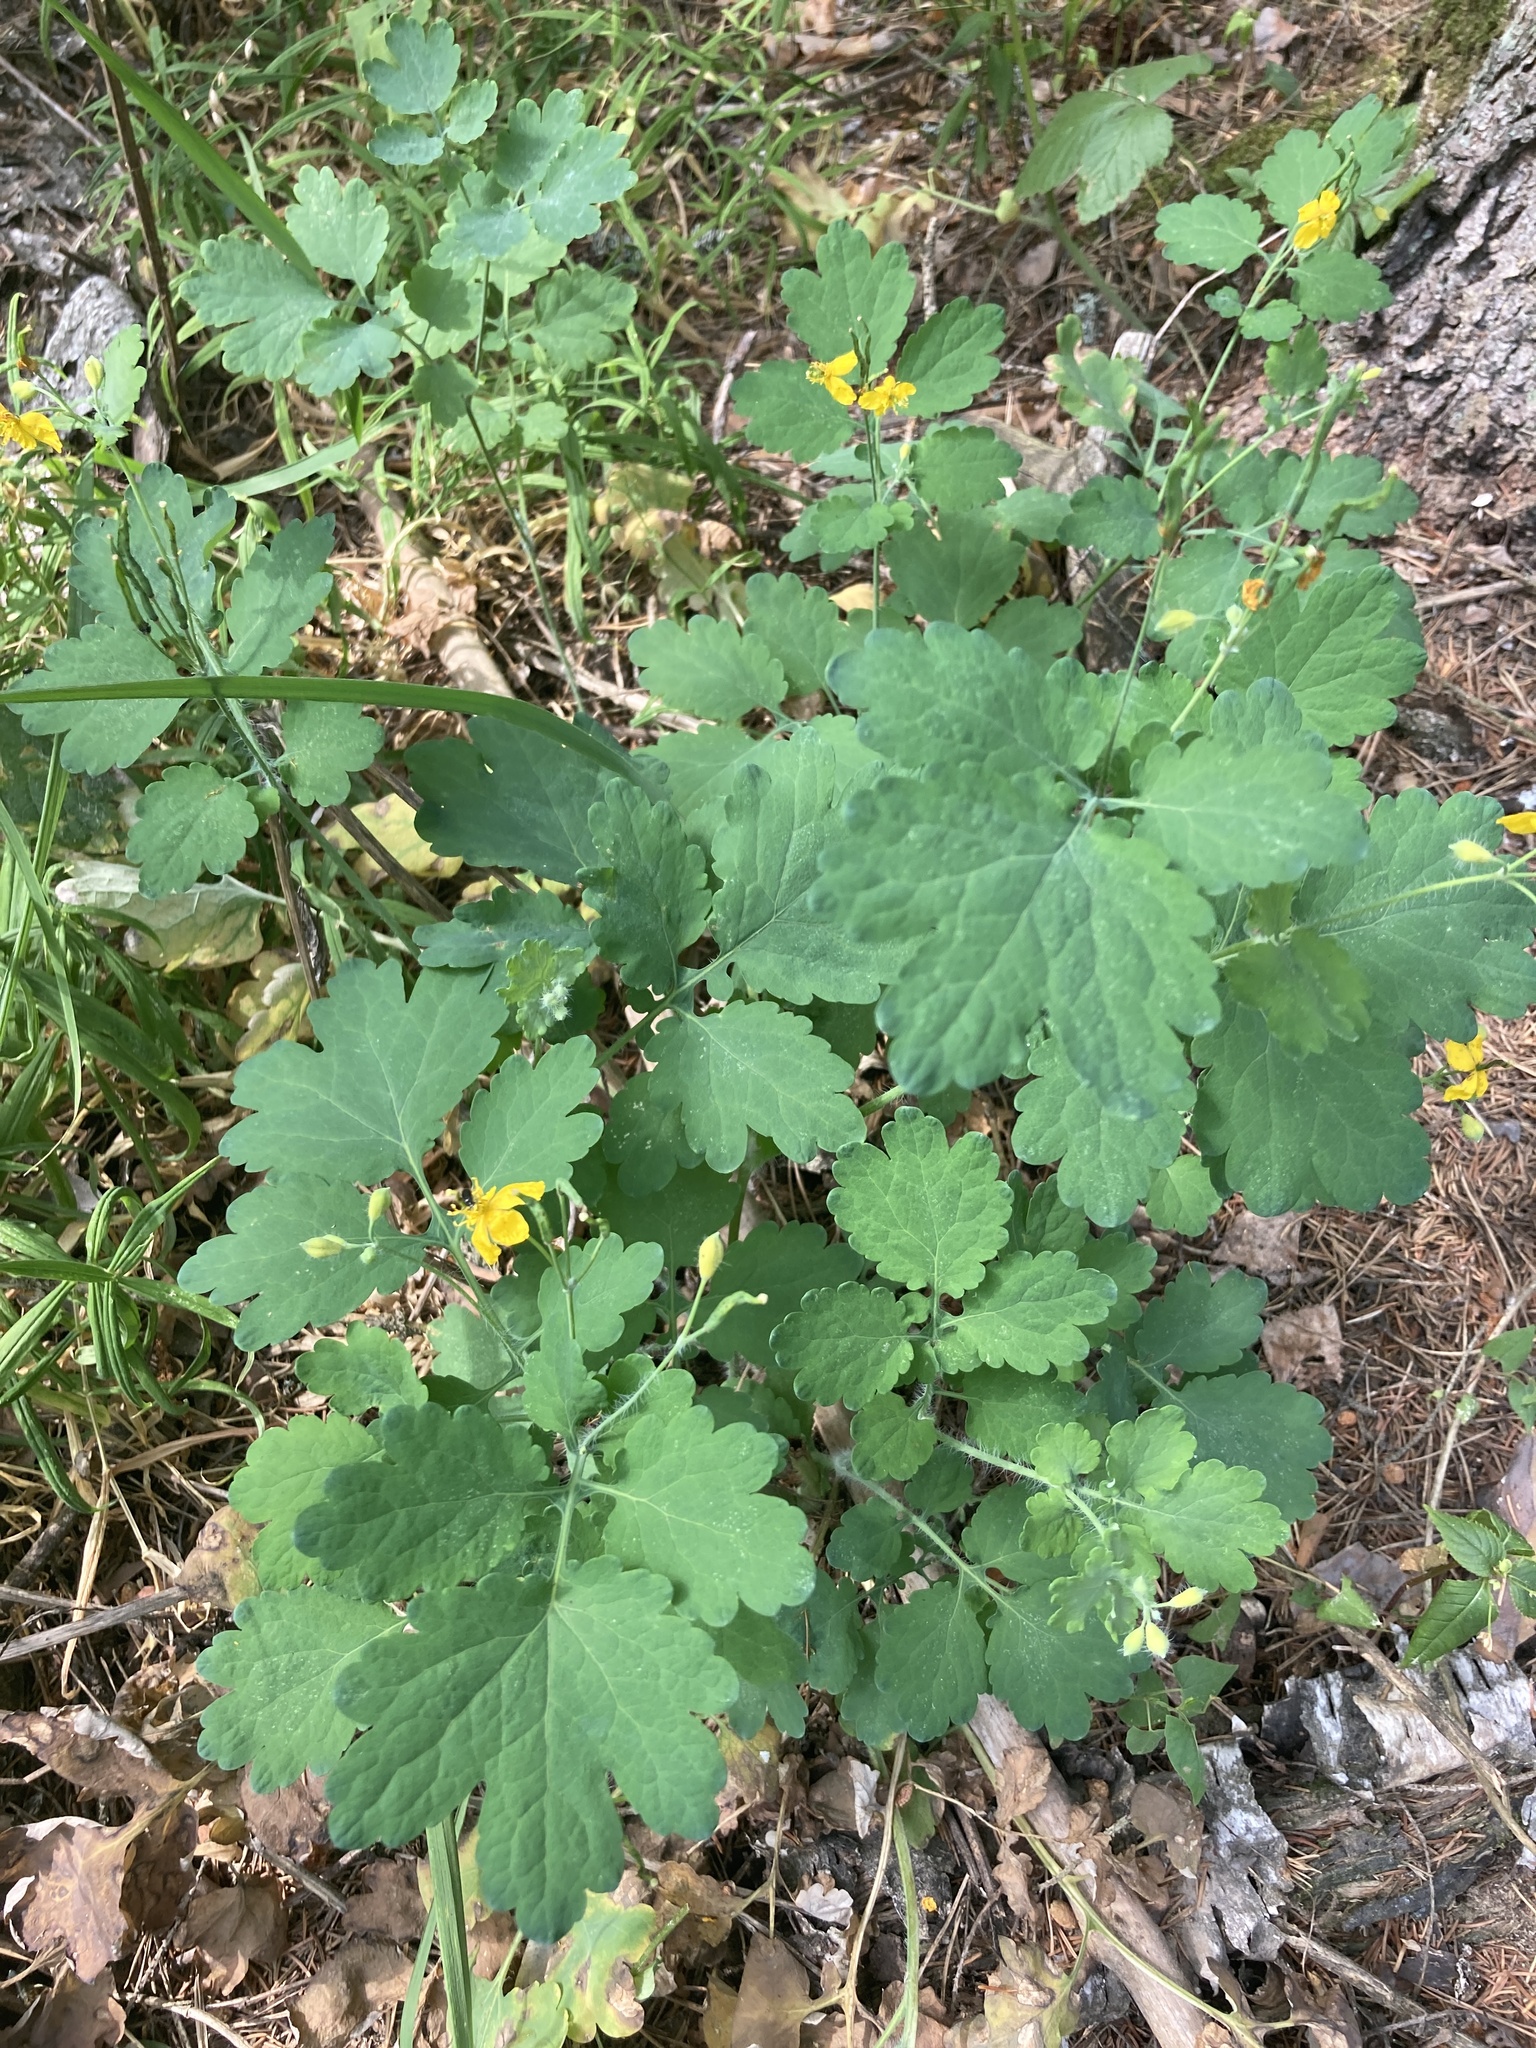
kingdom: Plantae
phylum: Tracheophyta
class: Magnoliopsida
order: Ranunculales
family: Papaveraceae
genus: Chelidonium
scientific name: Chelidonium majus
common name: Greater celandine
